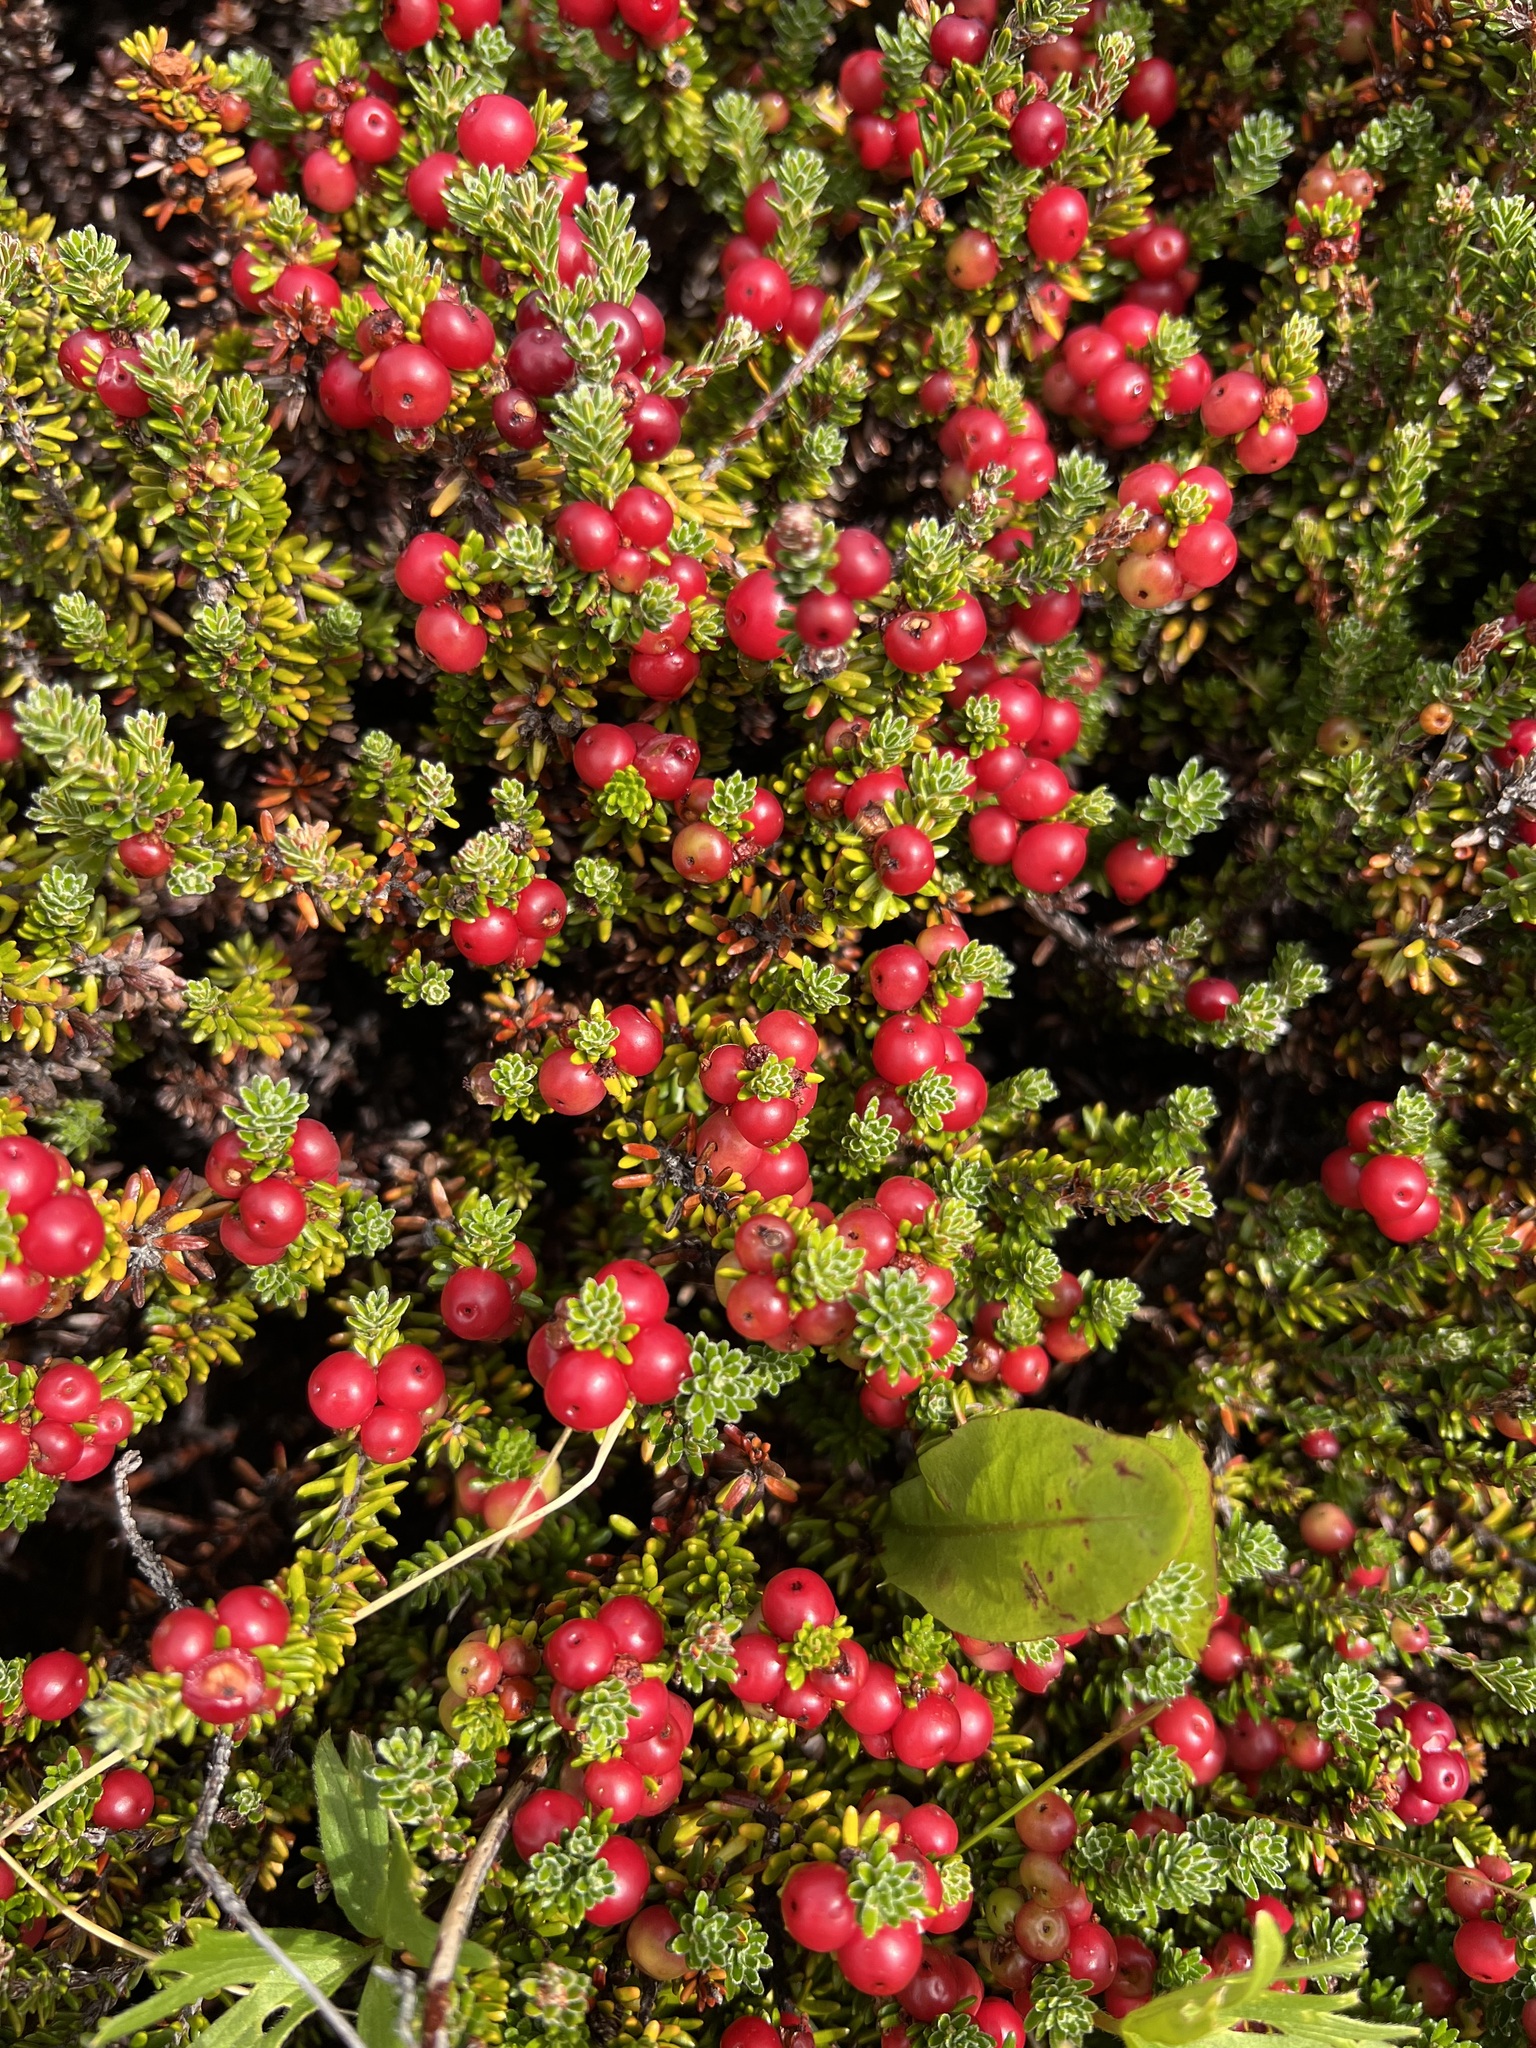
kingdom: Plantae
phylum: Tracheophyta
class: Magnoliopsida
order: Ericales
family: Ericaceae
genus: Empetrum
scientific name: Empetrum rubrum
